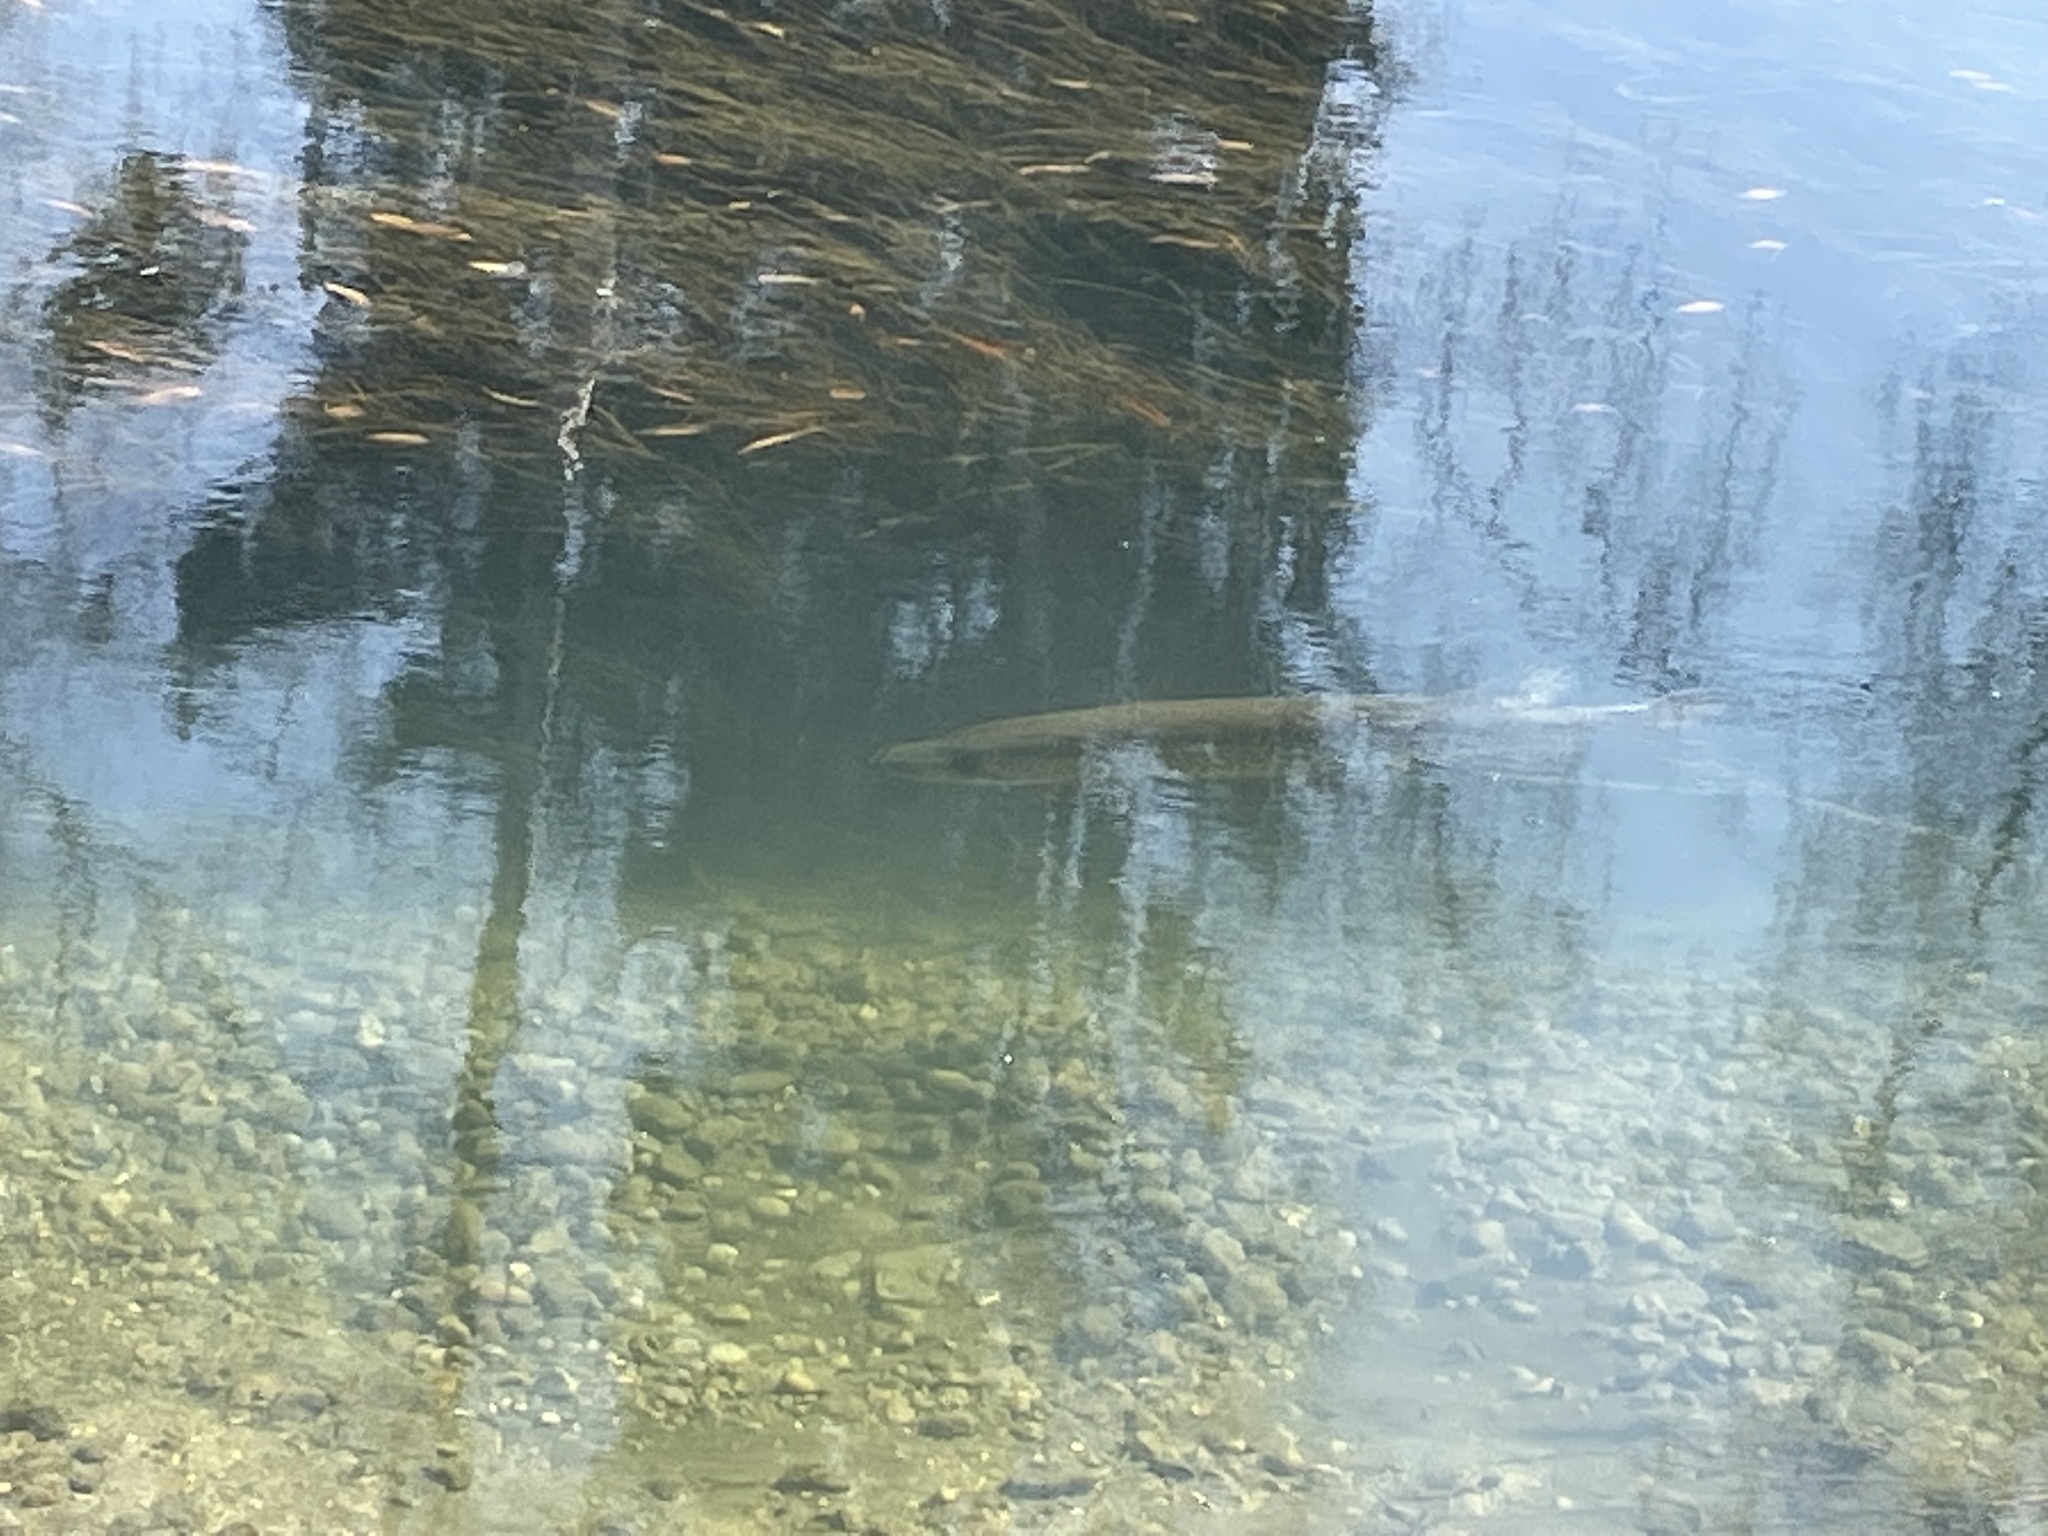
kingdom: Animalia
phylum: Chordata
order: Esociformes
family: Esocidae
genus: Esox
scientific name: Esox lucius
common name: Northern pike
